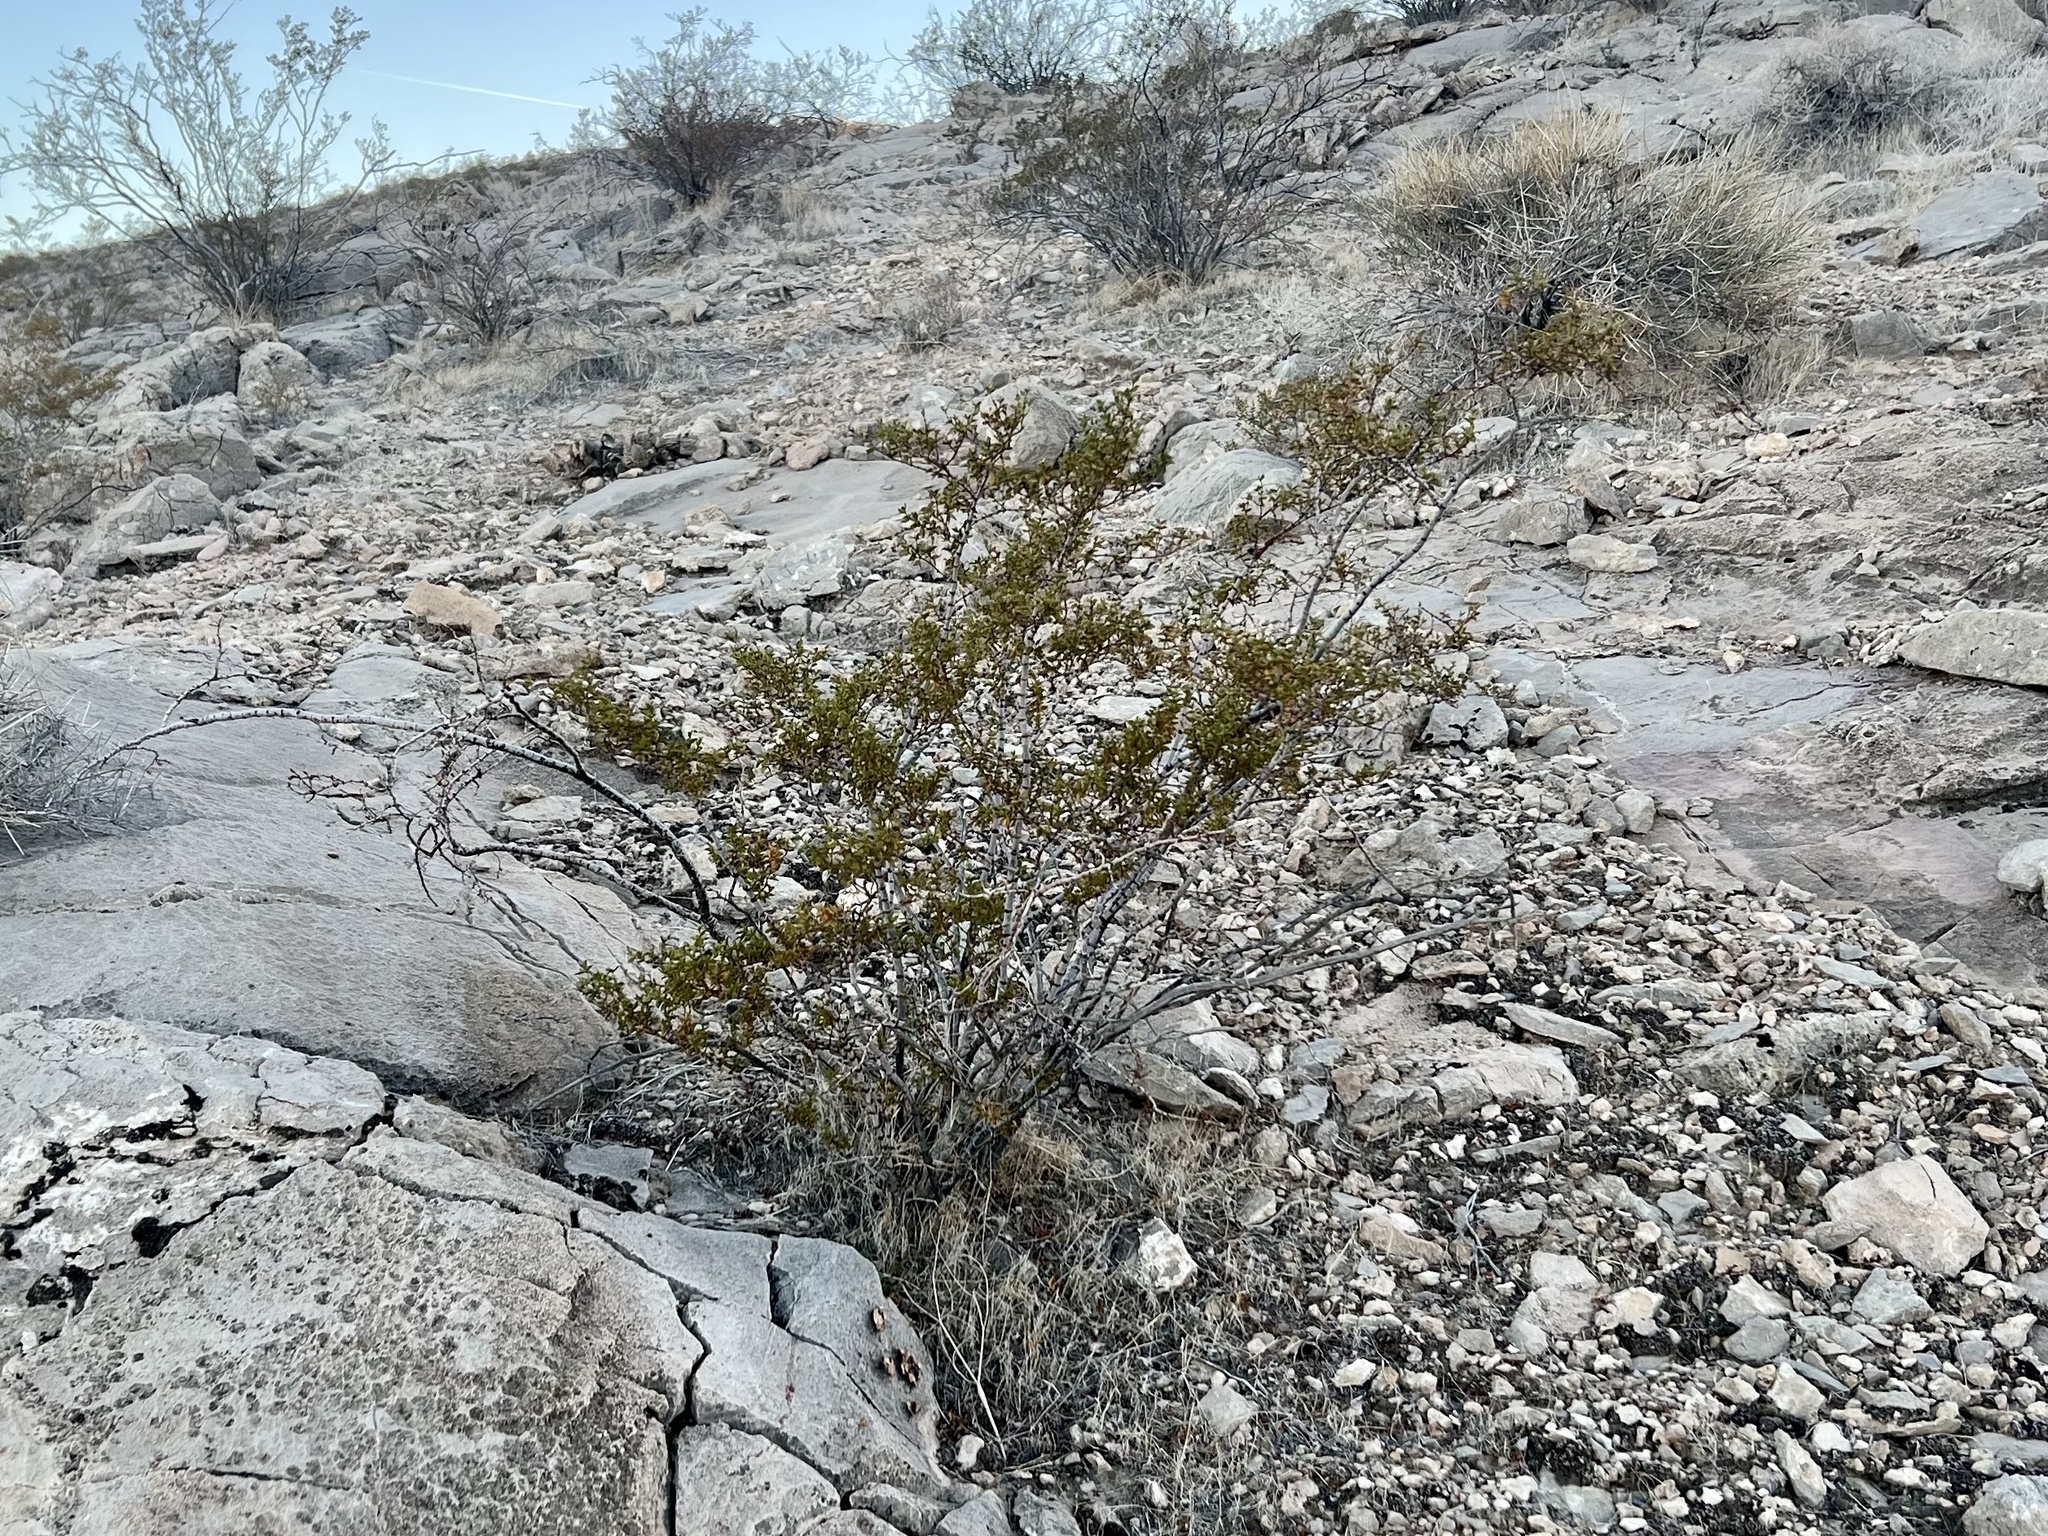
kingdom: Plantae
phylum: Tracheophyta
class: Magnoliopsida
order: Zygophyllales
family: Zygophyllaceae
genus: Larrea
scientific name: Larrea tridentata
